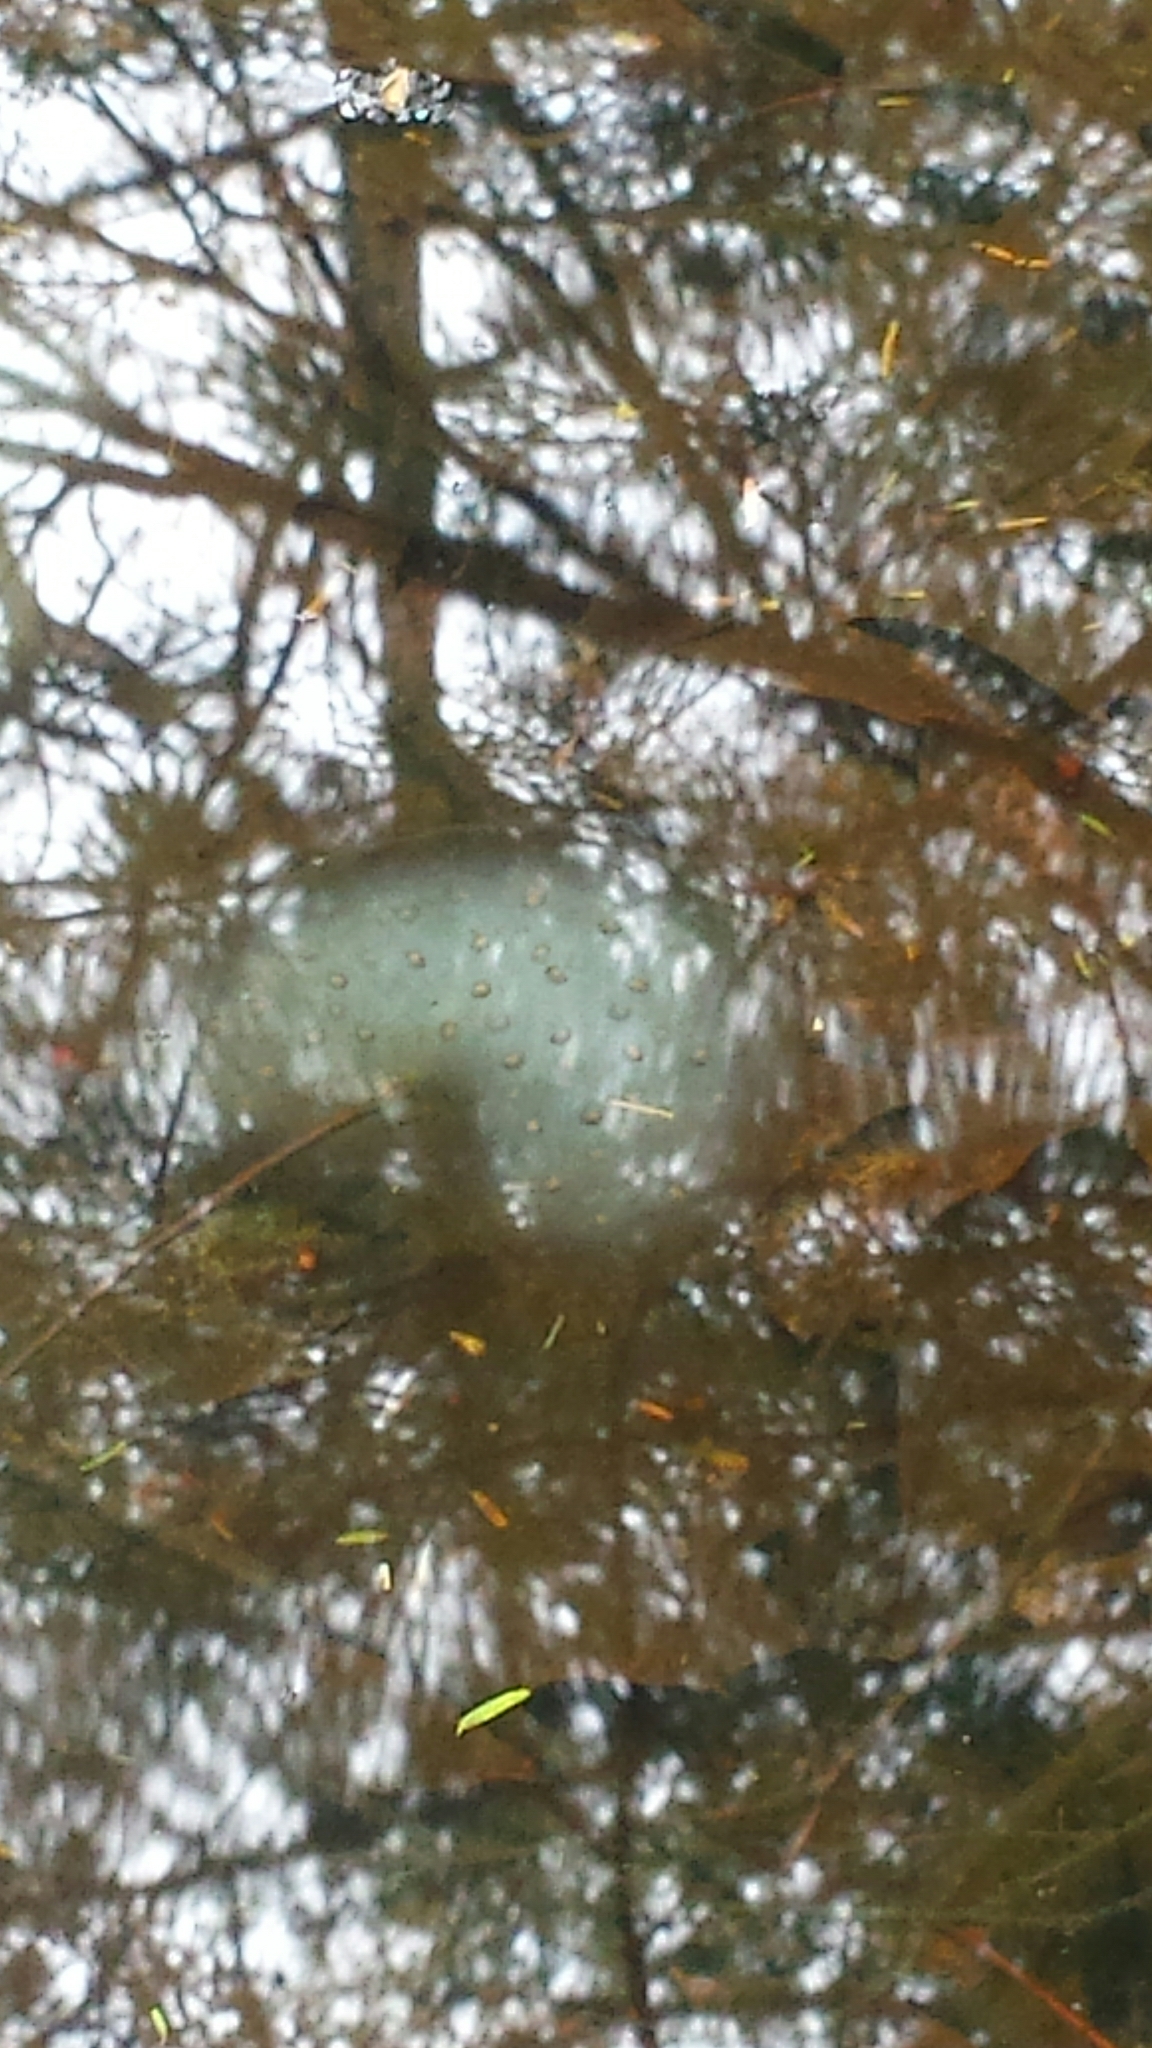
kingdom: Animalia
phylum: Chordata
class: Amphibia
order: Caudata
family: Ambystomatidae
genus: Ambystoma
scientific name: Ambystoma maculatum
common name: Spotted salamander
